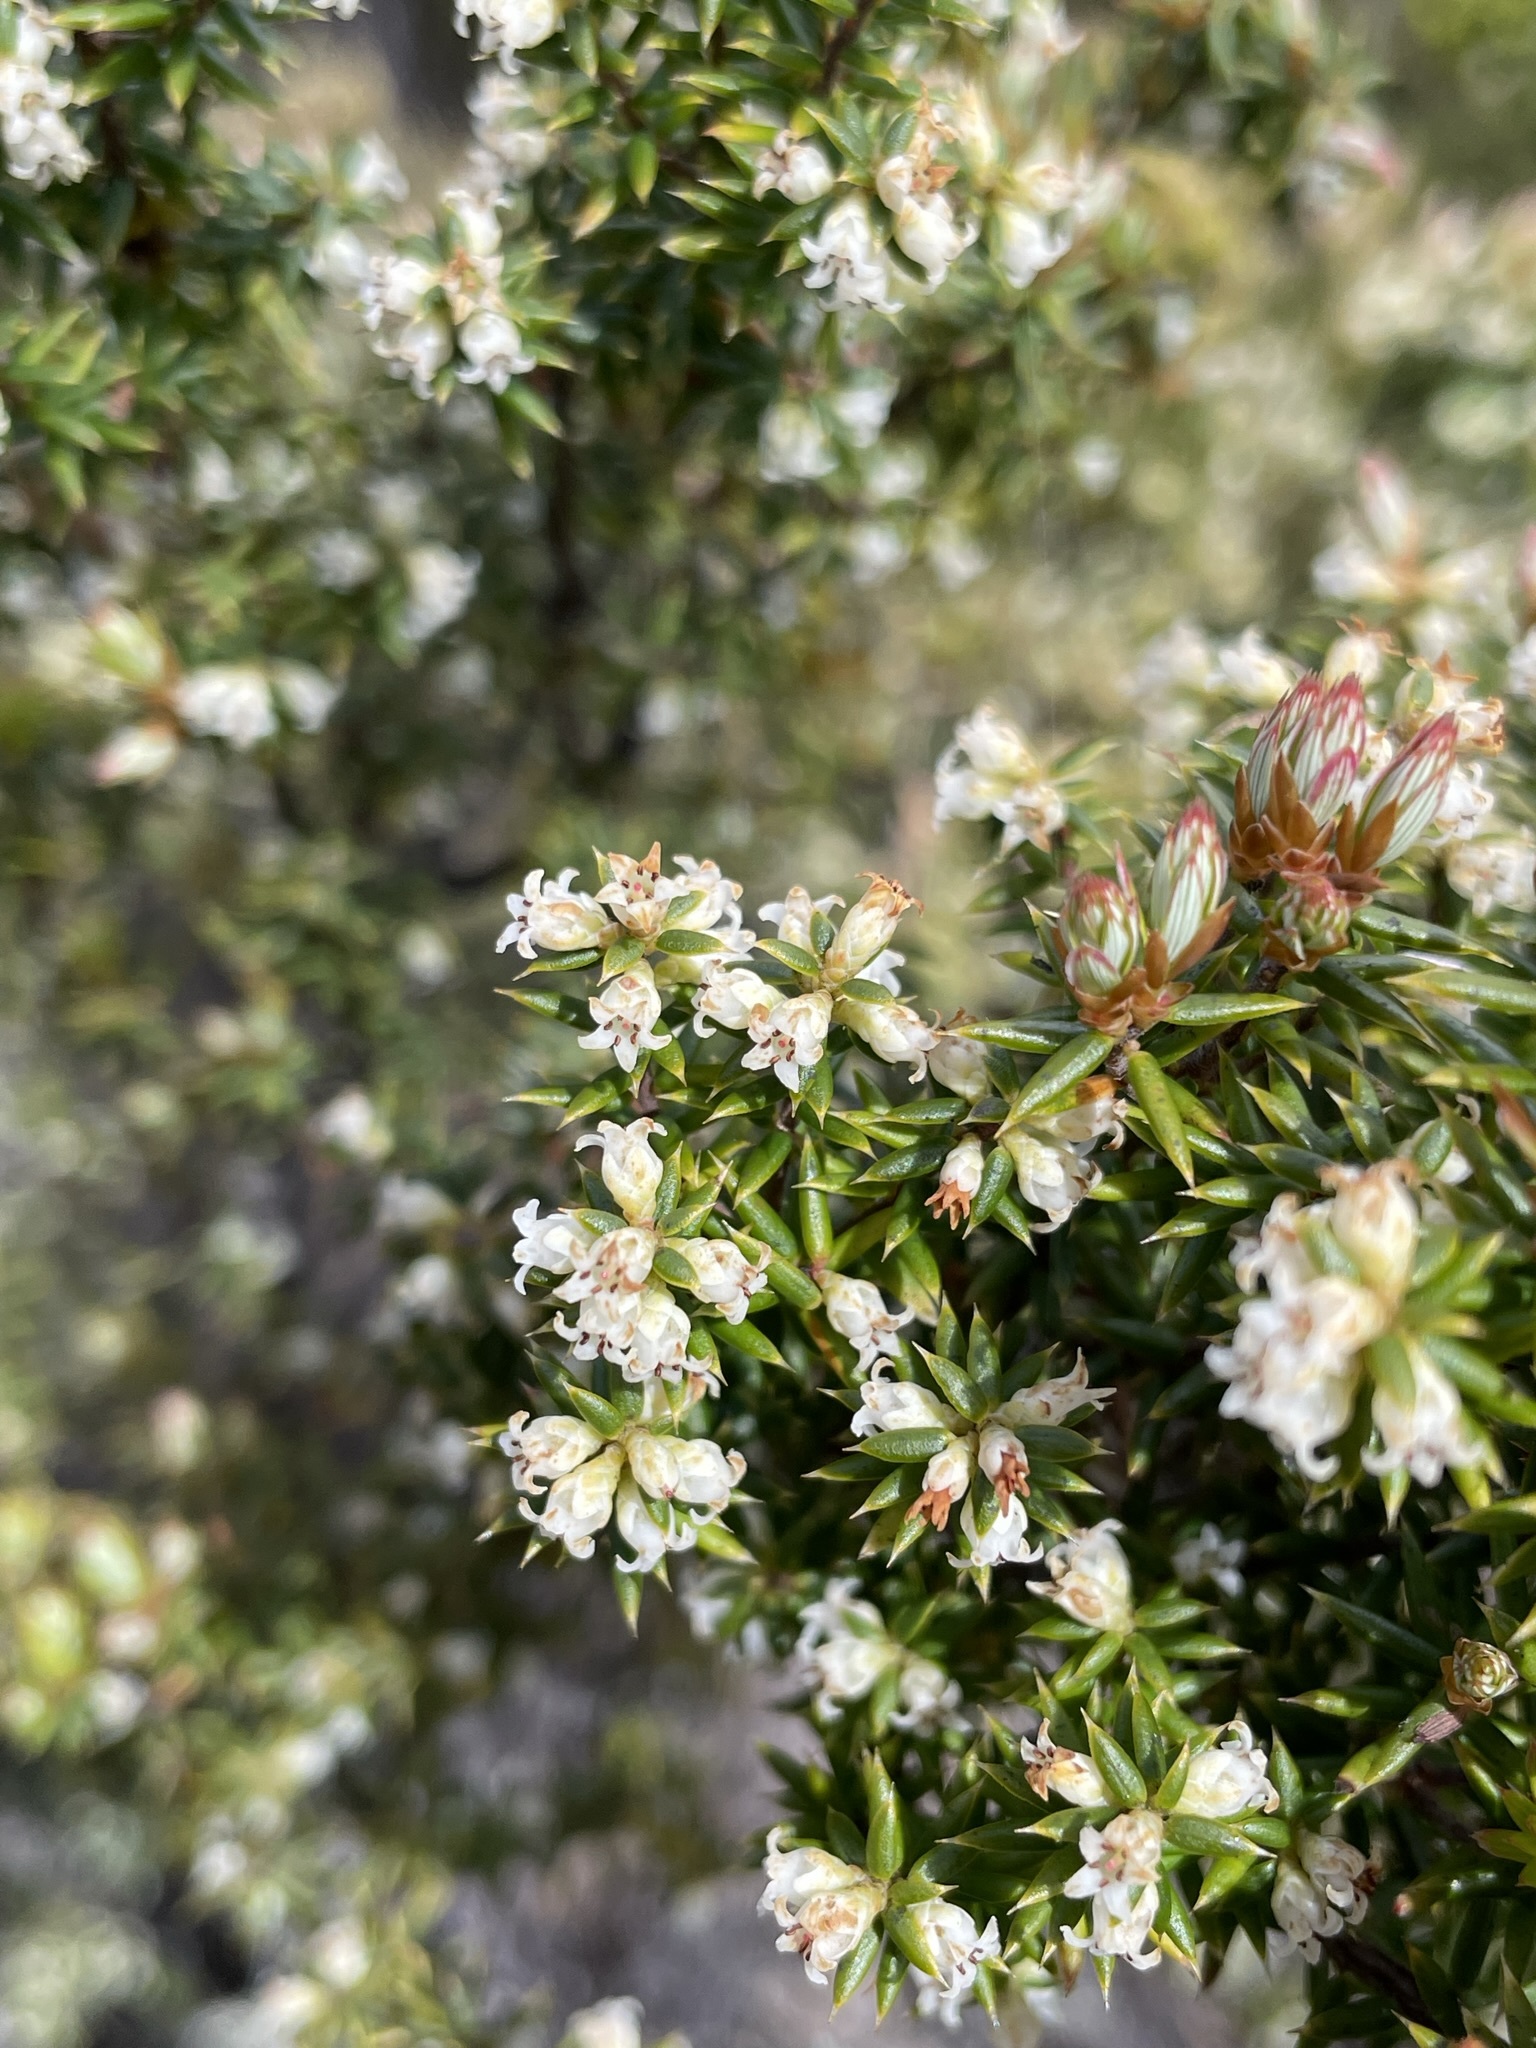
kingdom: Plantae
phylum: Tracheophyta
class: Magnoliopsida
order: Ericales
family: Ericaceae
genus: Leptecophylla
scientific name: Leptecophylla parvifolia
